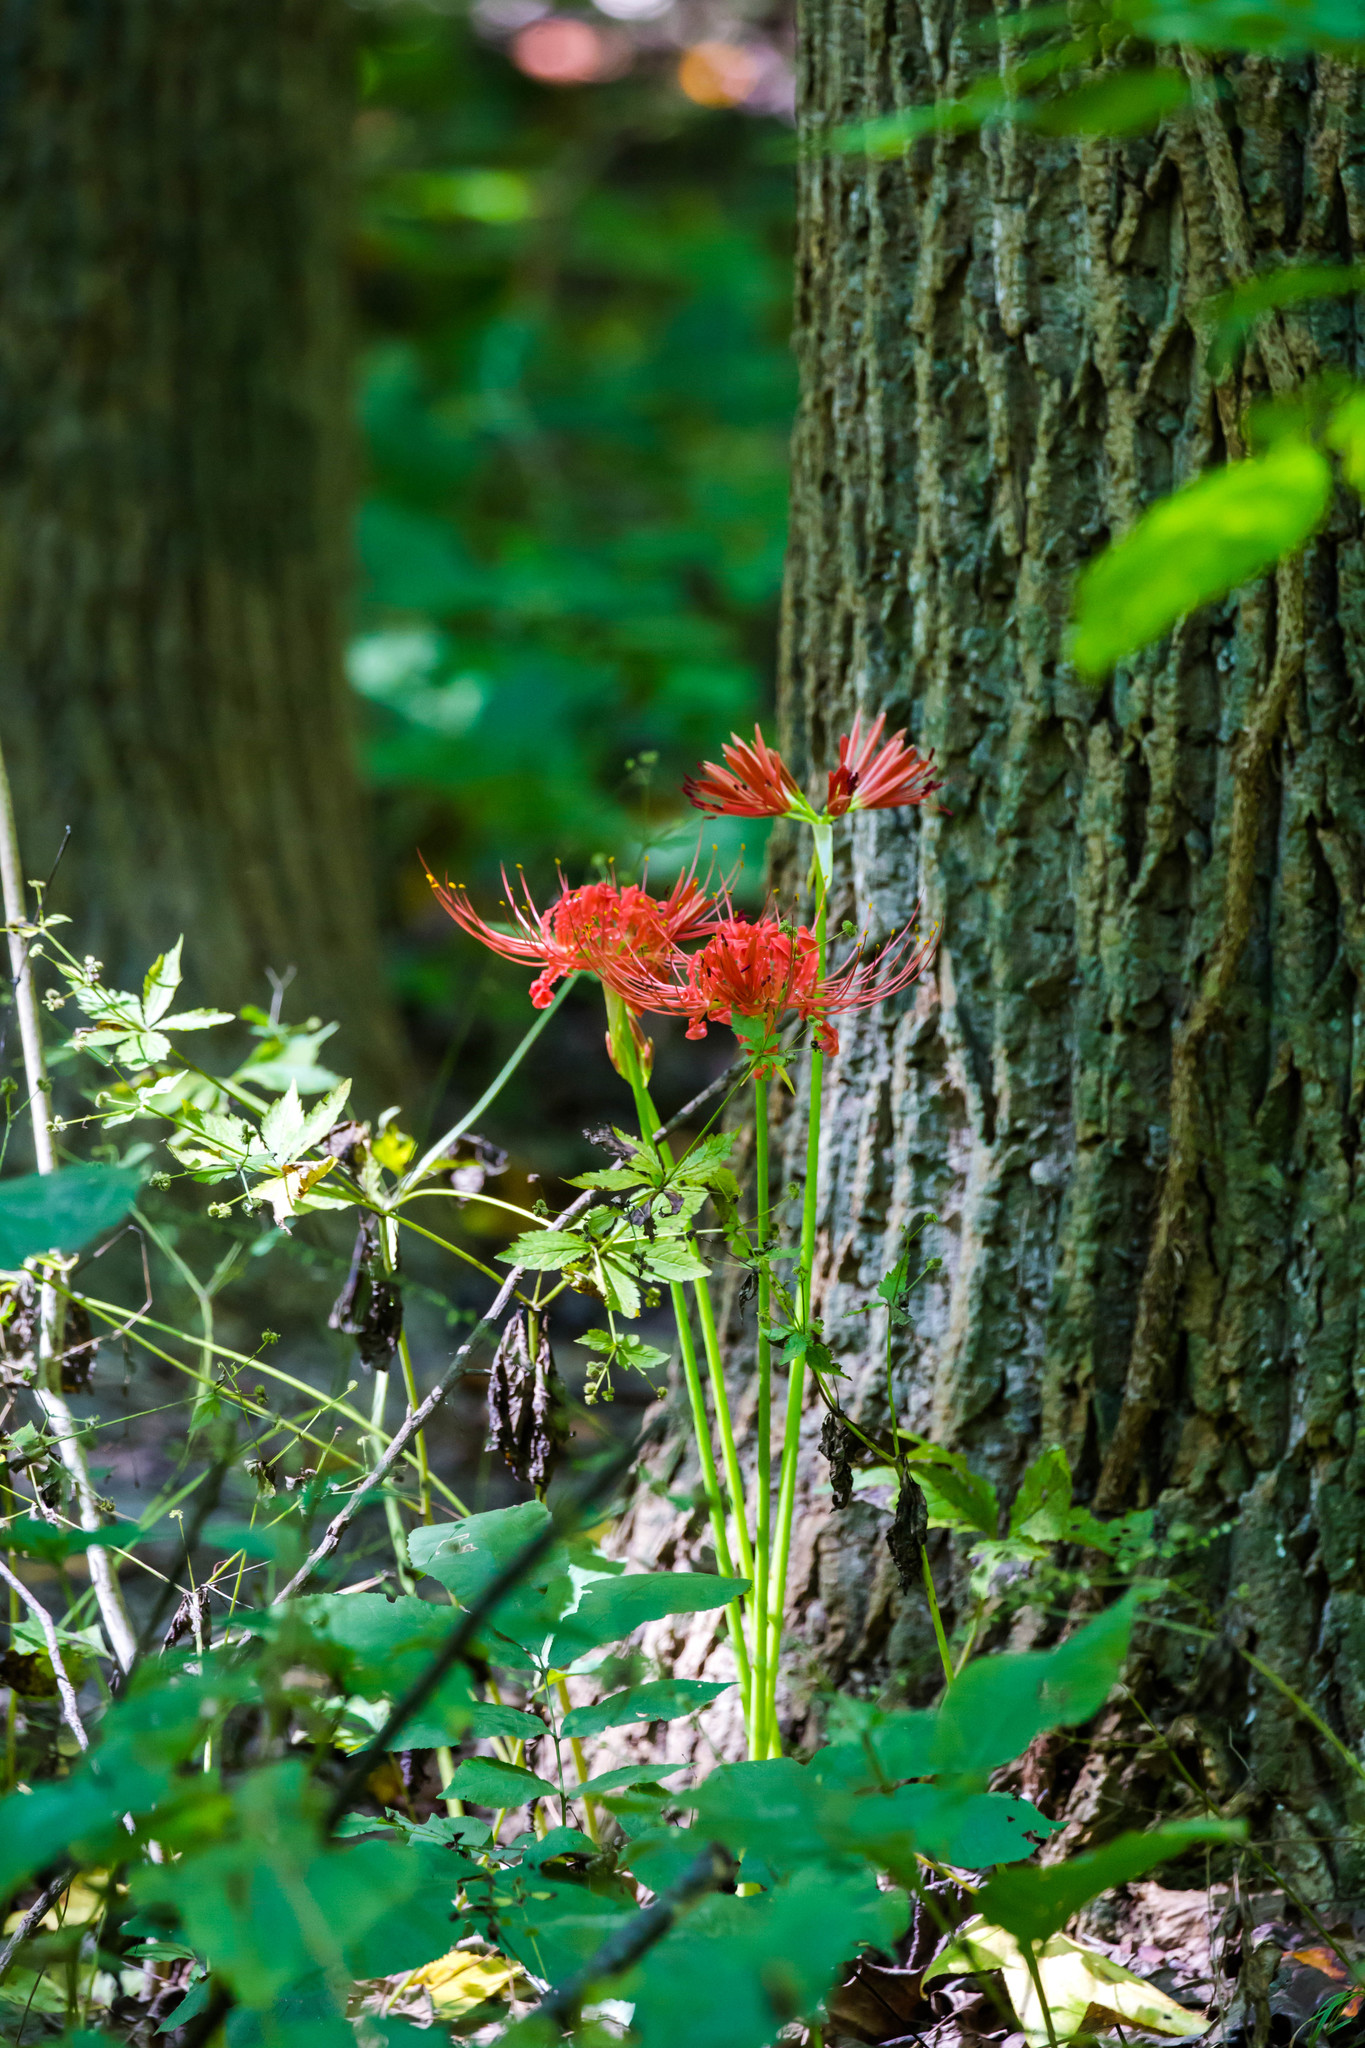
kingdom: Plantae
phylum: Tracheophyta
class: Liliopsida
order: Asparagales
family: Amaryllidaceae
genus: Lycoris
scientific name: Lycoris radiata
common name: Red spider lily
